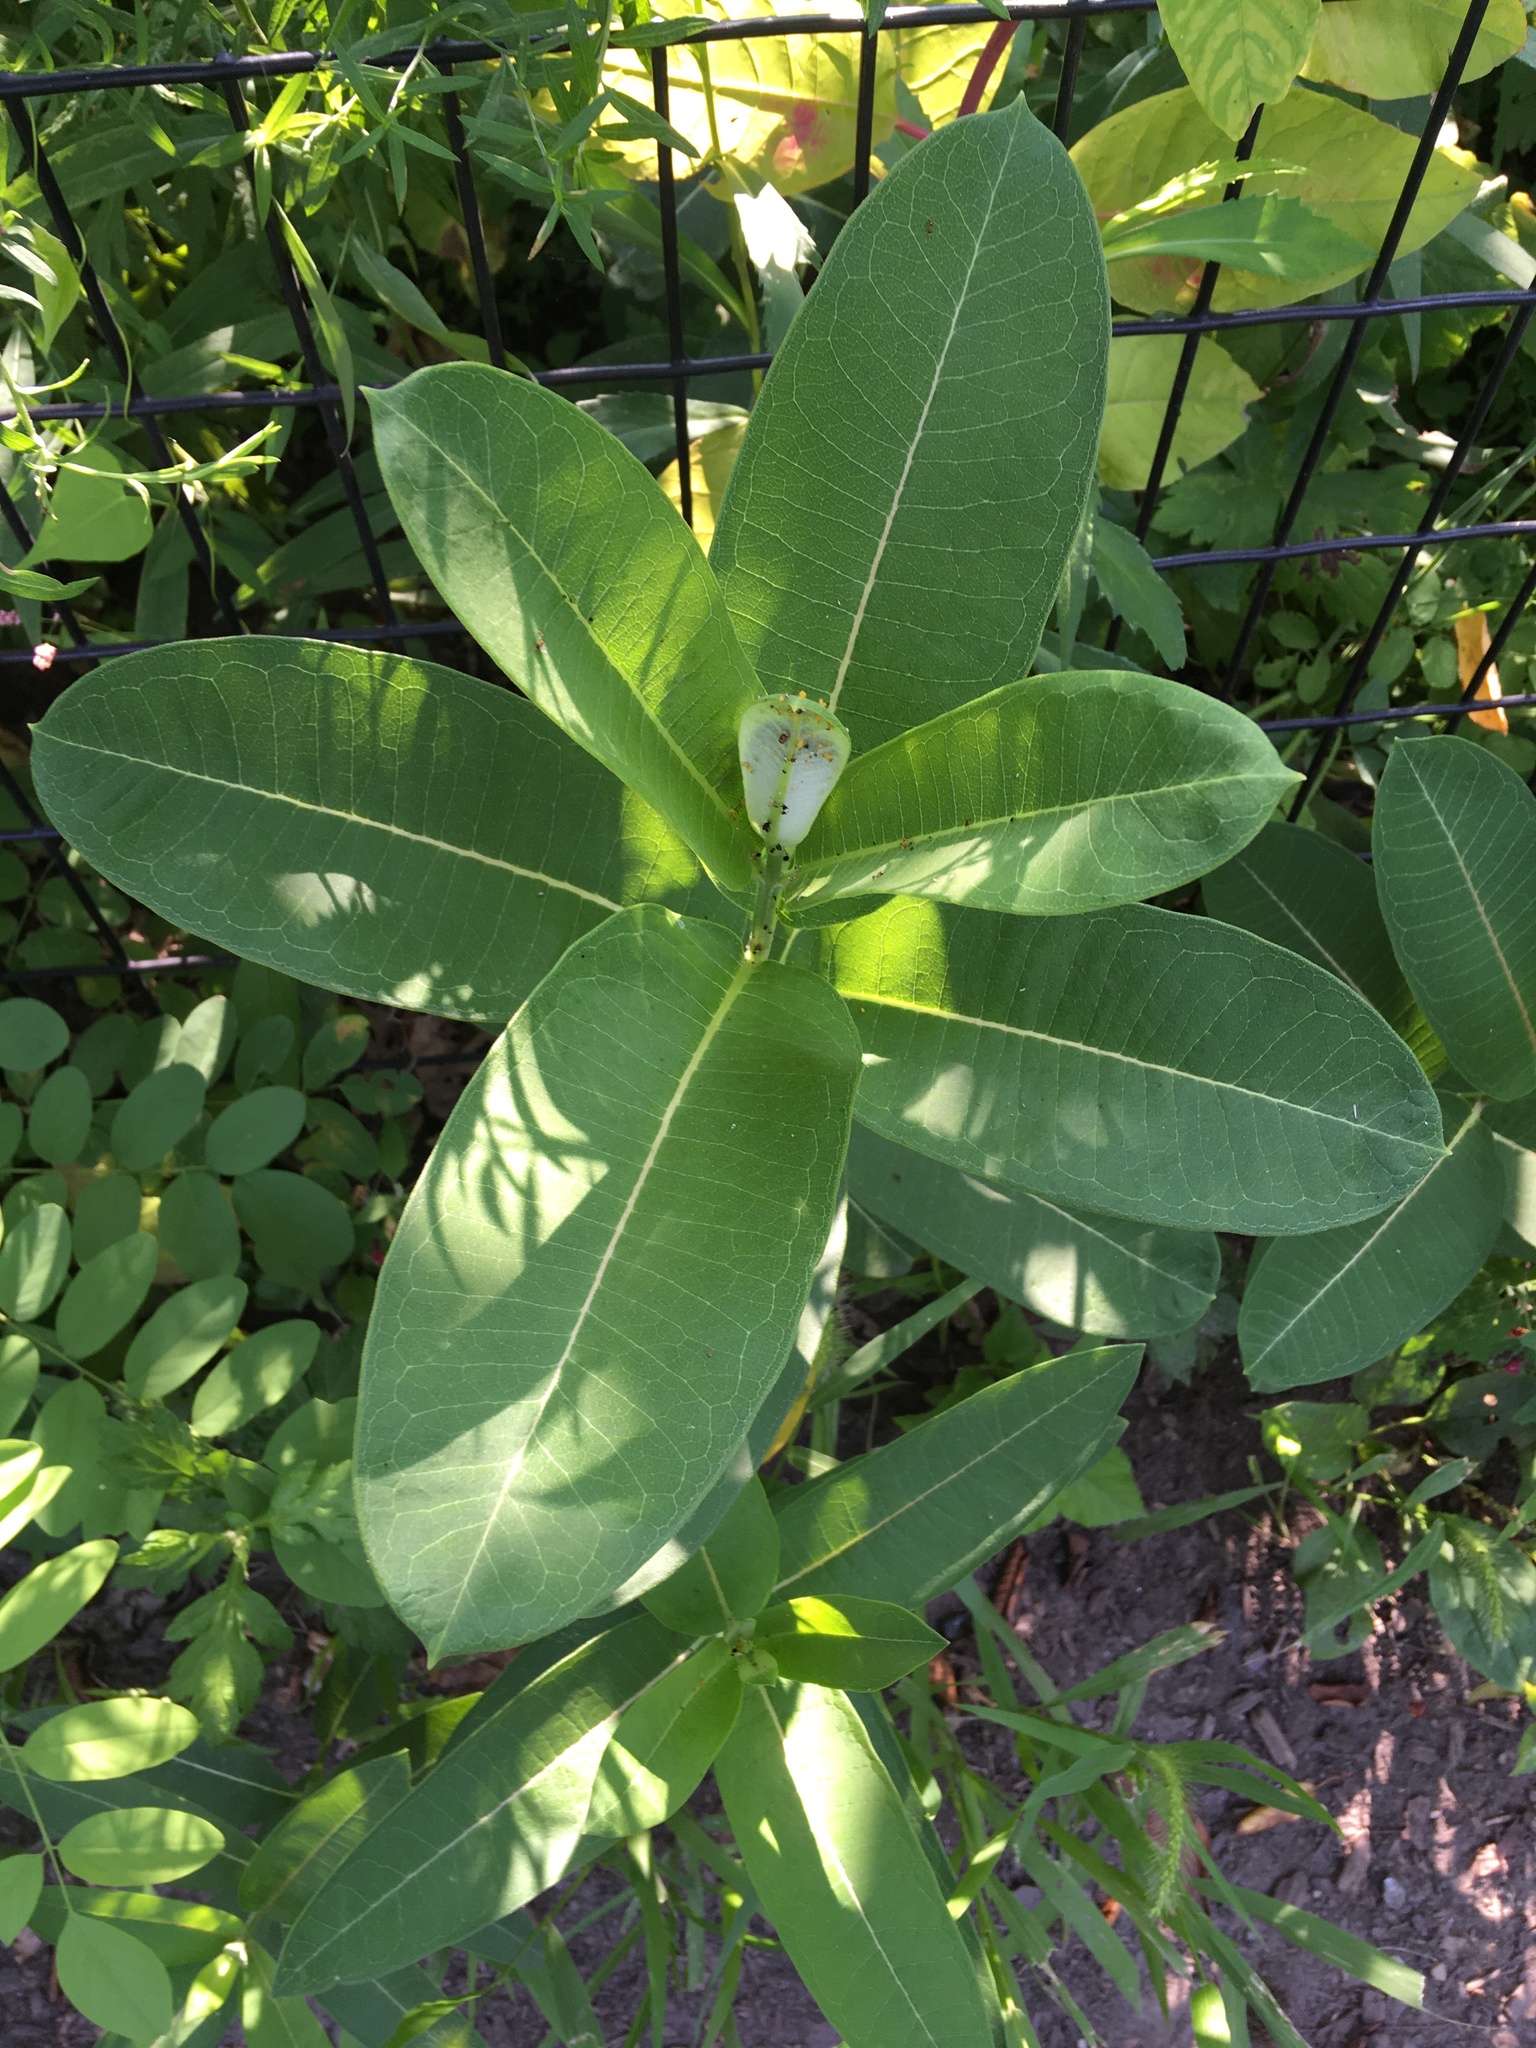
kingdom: Plantae
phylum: Tracheophyta
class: Magnoliopsida
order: Gentianales
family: Apocynaceae
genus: Asclepias
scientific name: Asclepias syriaca
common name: Common milkweed
